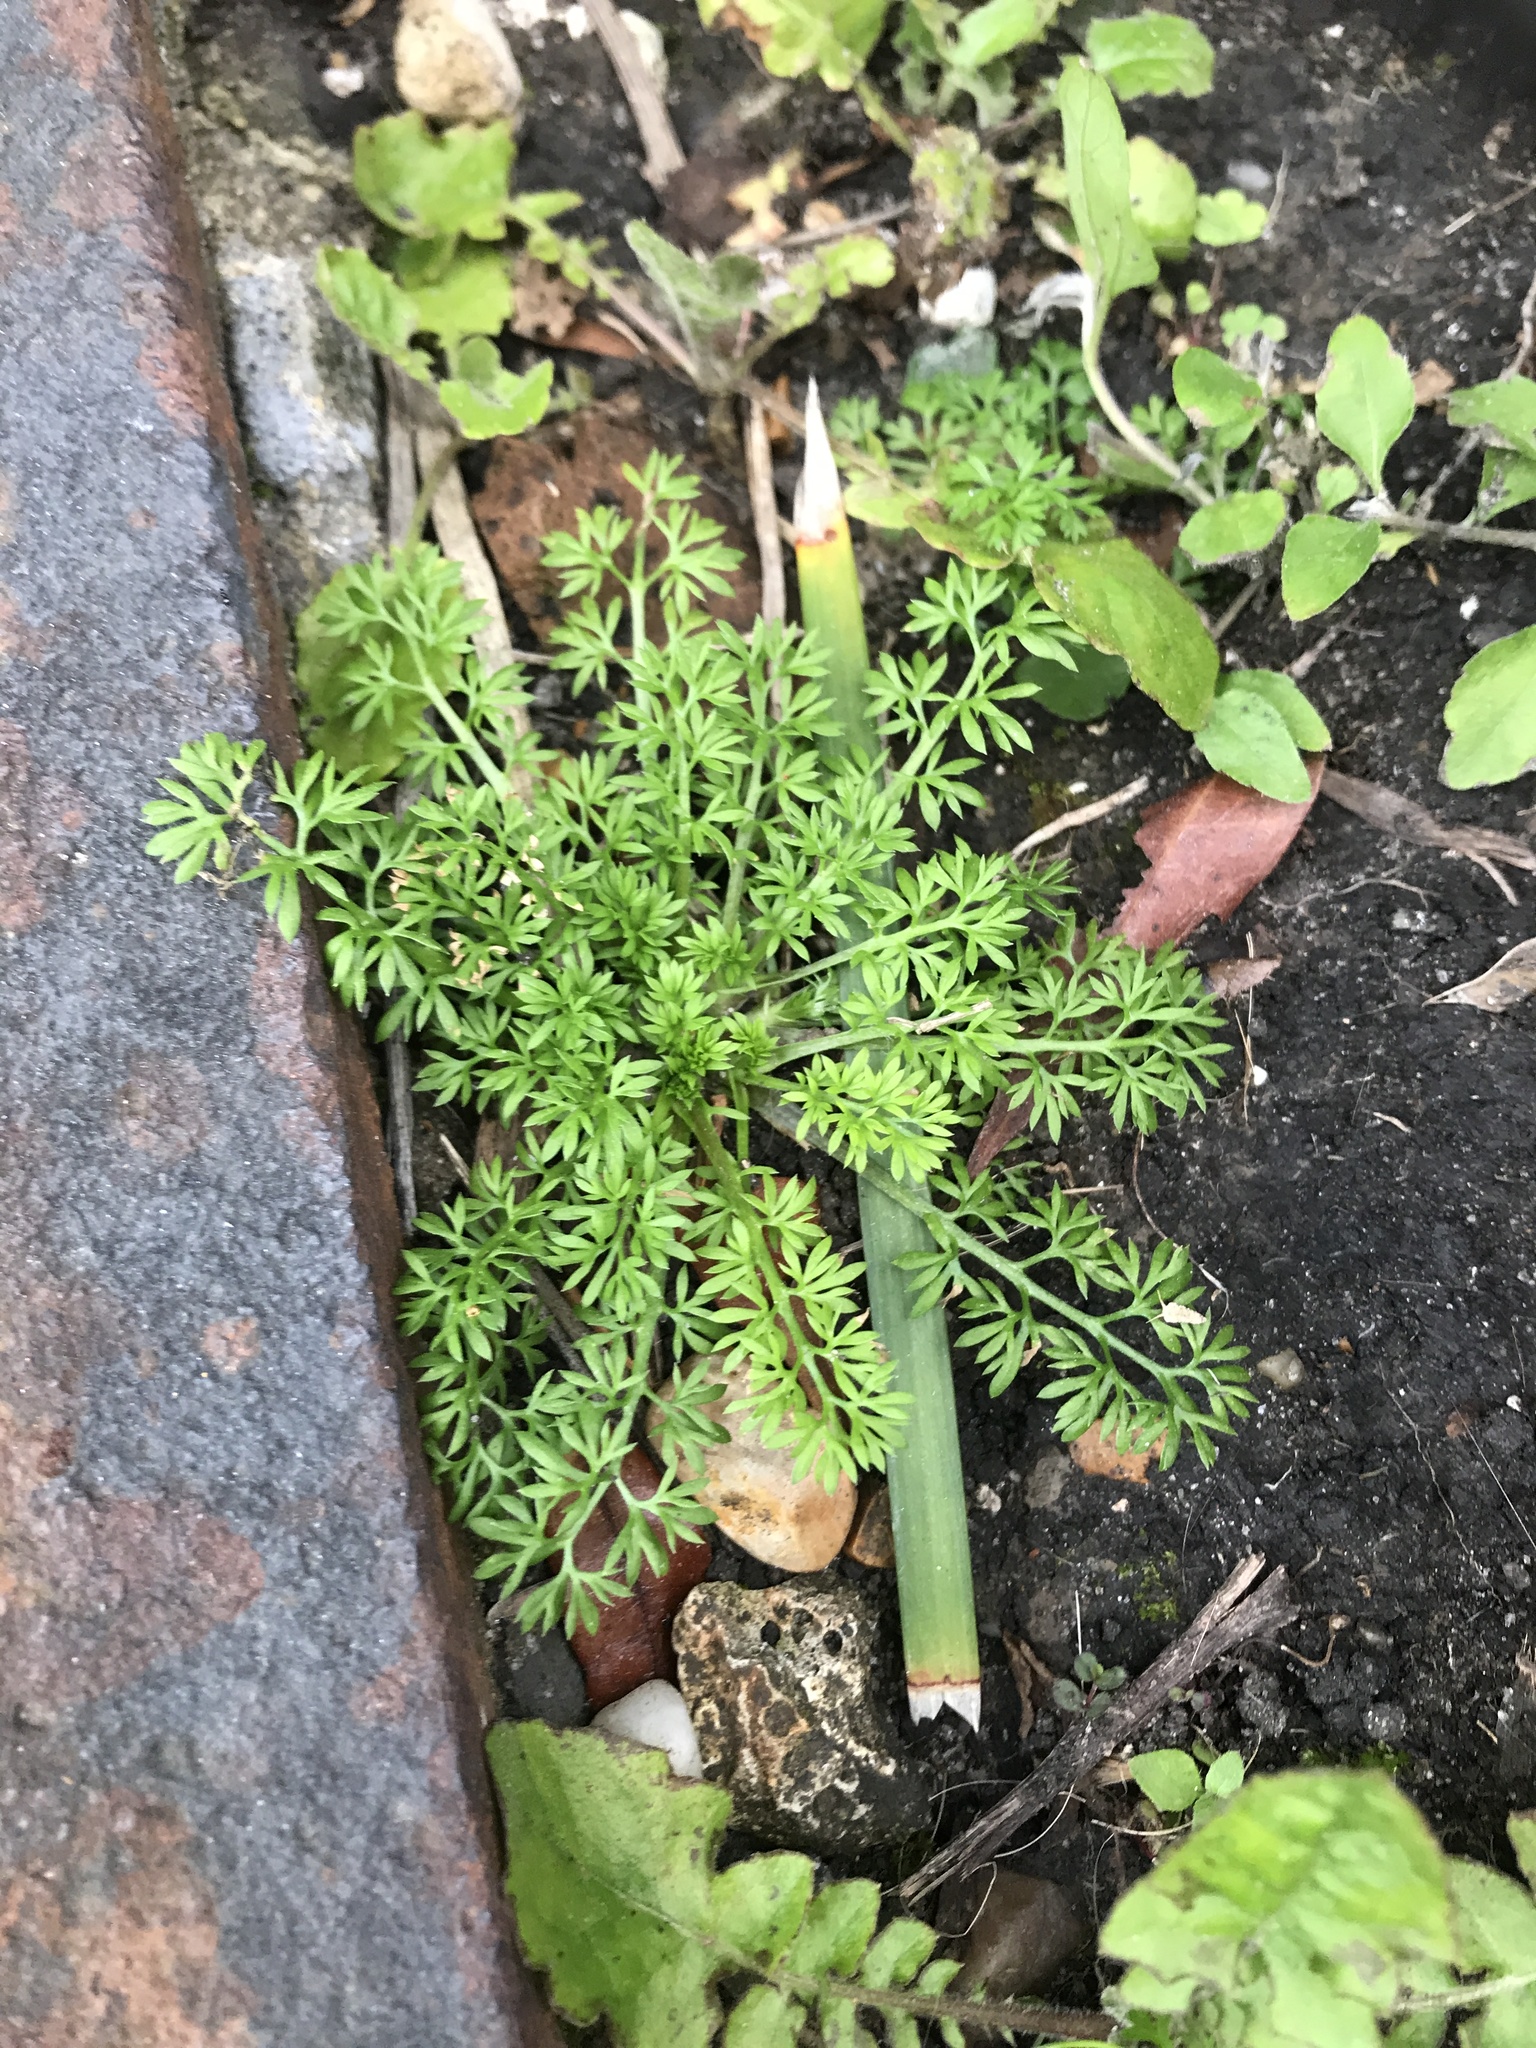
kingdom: Plantae
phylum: Tracheophyta
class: Magnoliopsida
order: Asterales
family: Asteraceae
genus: Soliva
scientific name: Soliva sessilis
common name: Field burrweed
